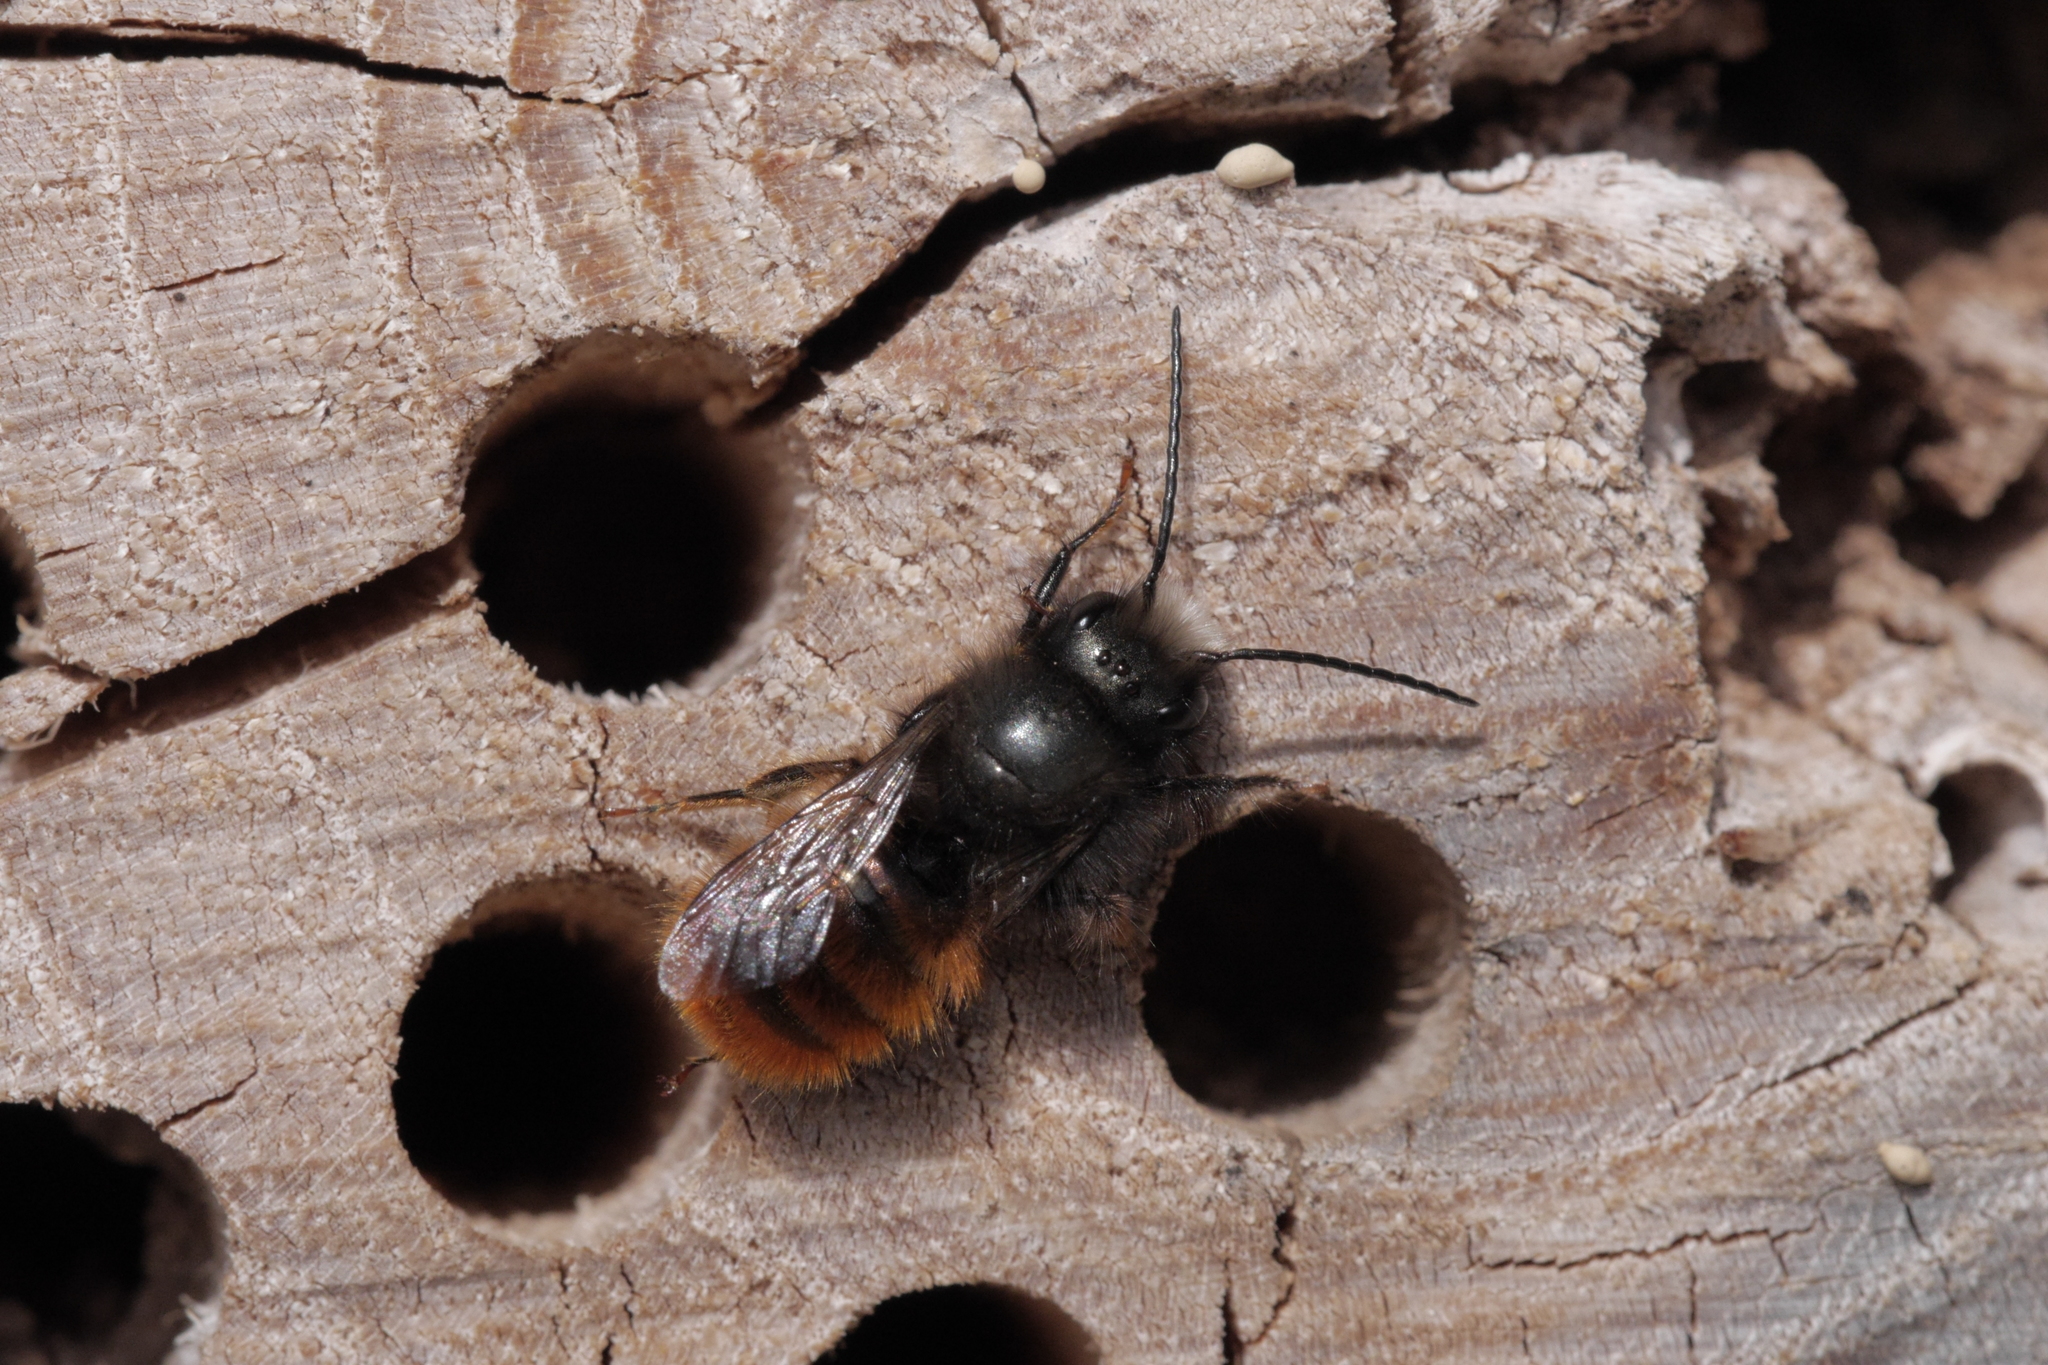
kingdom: Animalia
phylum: Arthropoda
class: Insecta
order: Hymenoptera
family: Megachilidae
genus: Osmia
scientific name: Osmia cornuta
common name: Mason bee
